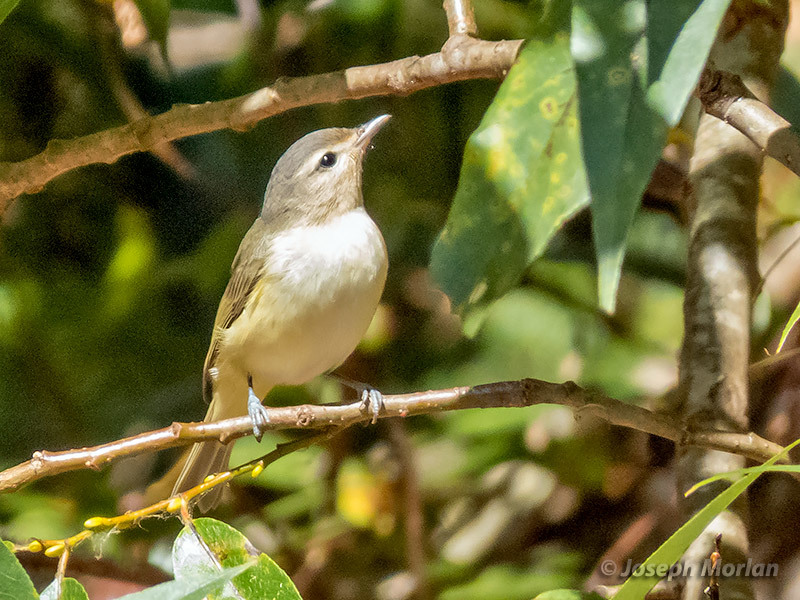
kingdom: Animalia
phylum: Chordata
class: Aves
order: Passeriformes
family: Vireonidae
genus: Vireo
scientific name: Vireo gilvus
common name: Warbling vireo
